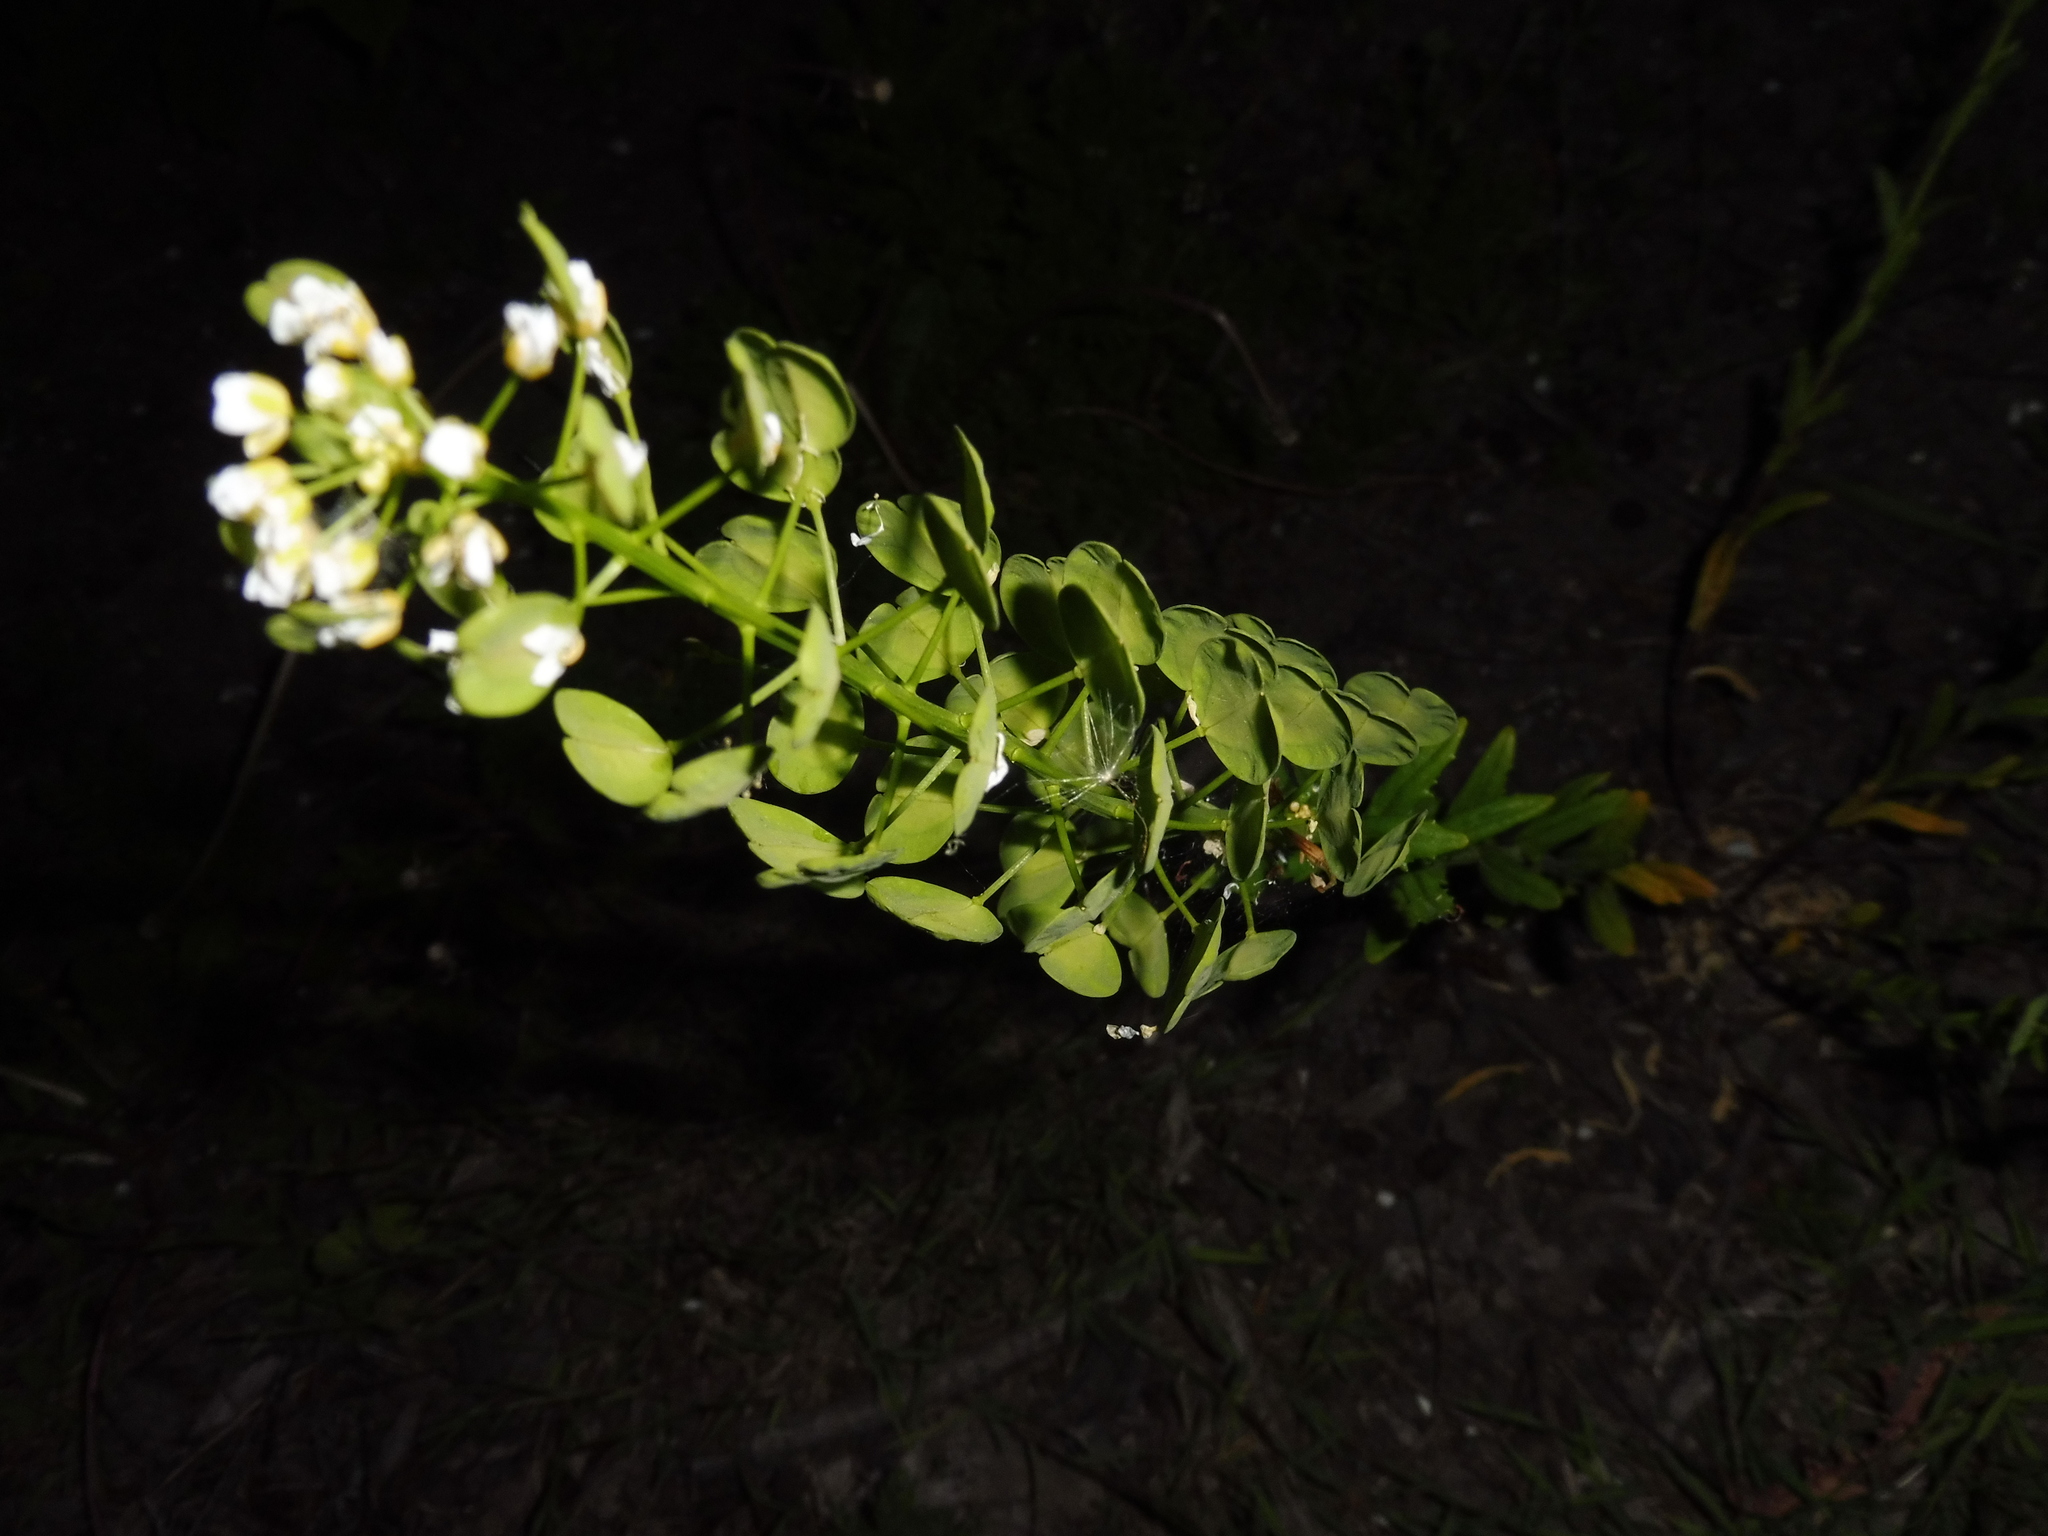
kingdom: Plantae
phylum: Tracheophyta
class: Magnoliopsida
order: Brassicales
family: Brassicaceae
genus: Thlaspi
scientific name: Thlaspi arvense
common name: Field pennycress
